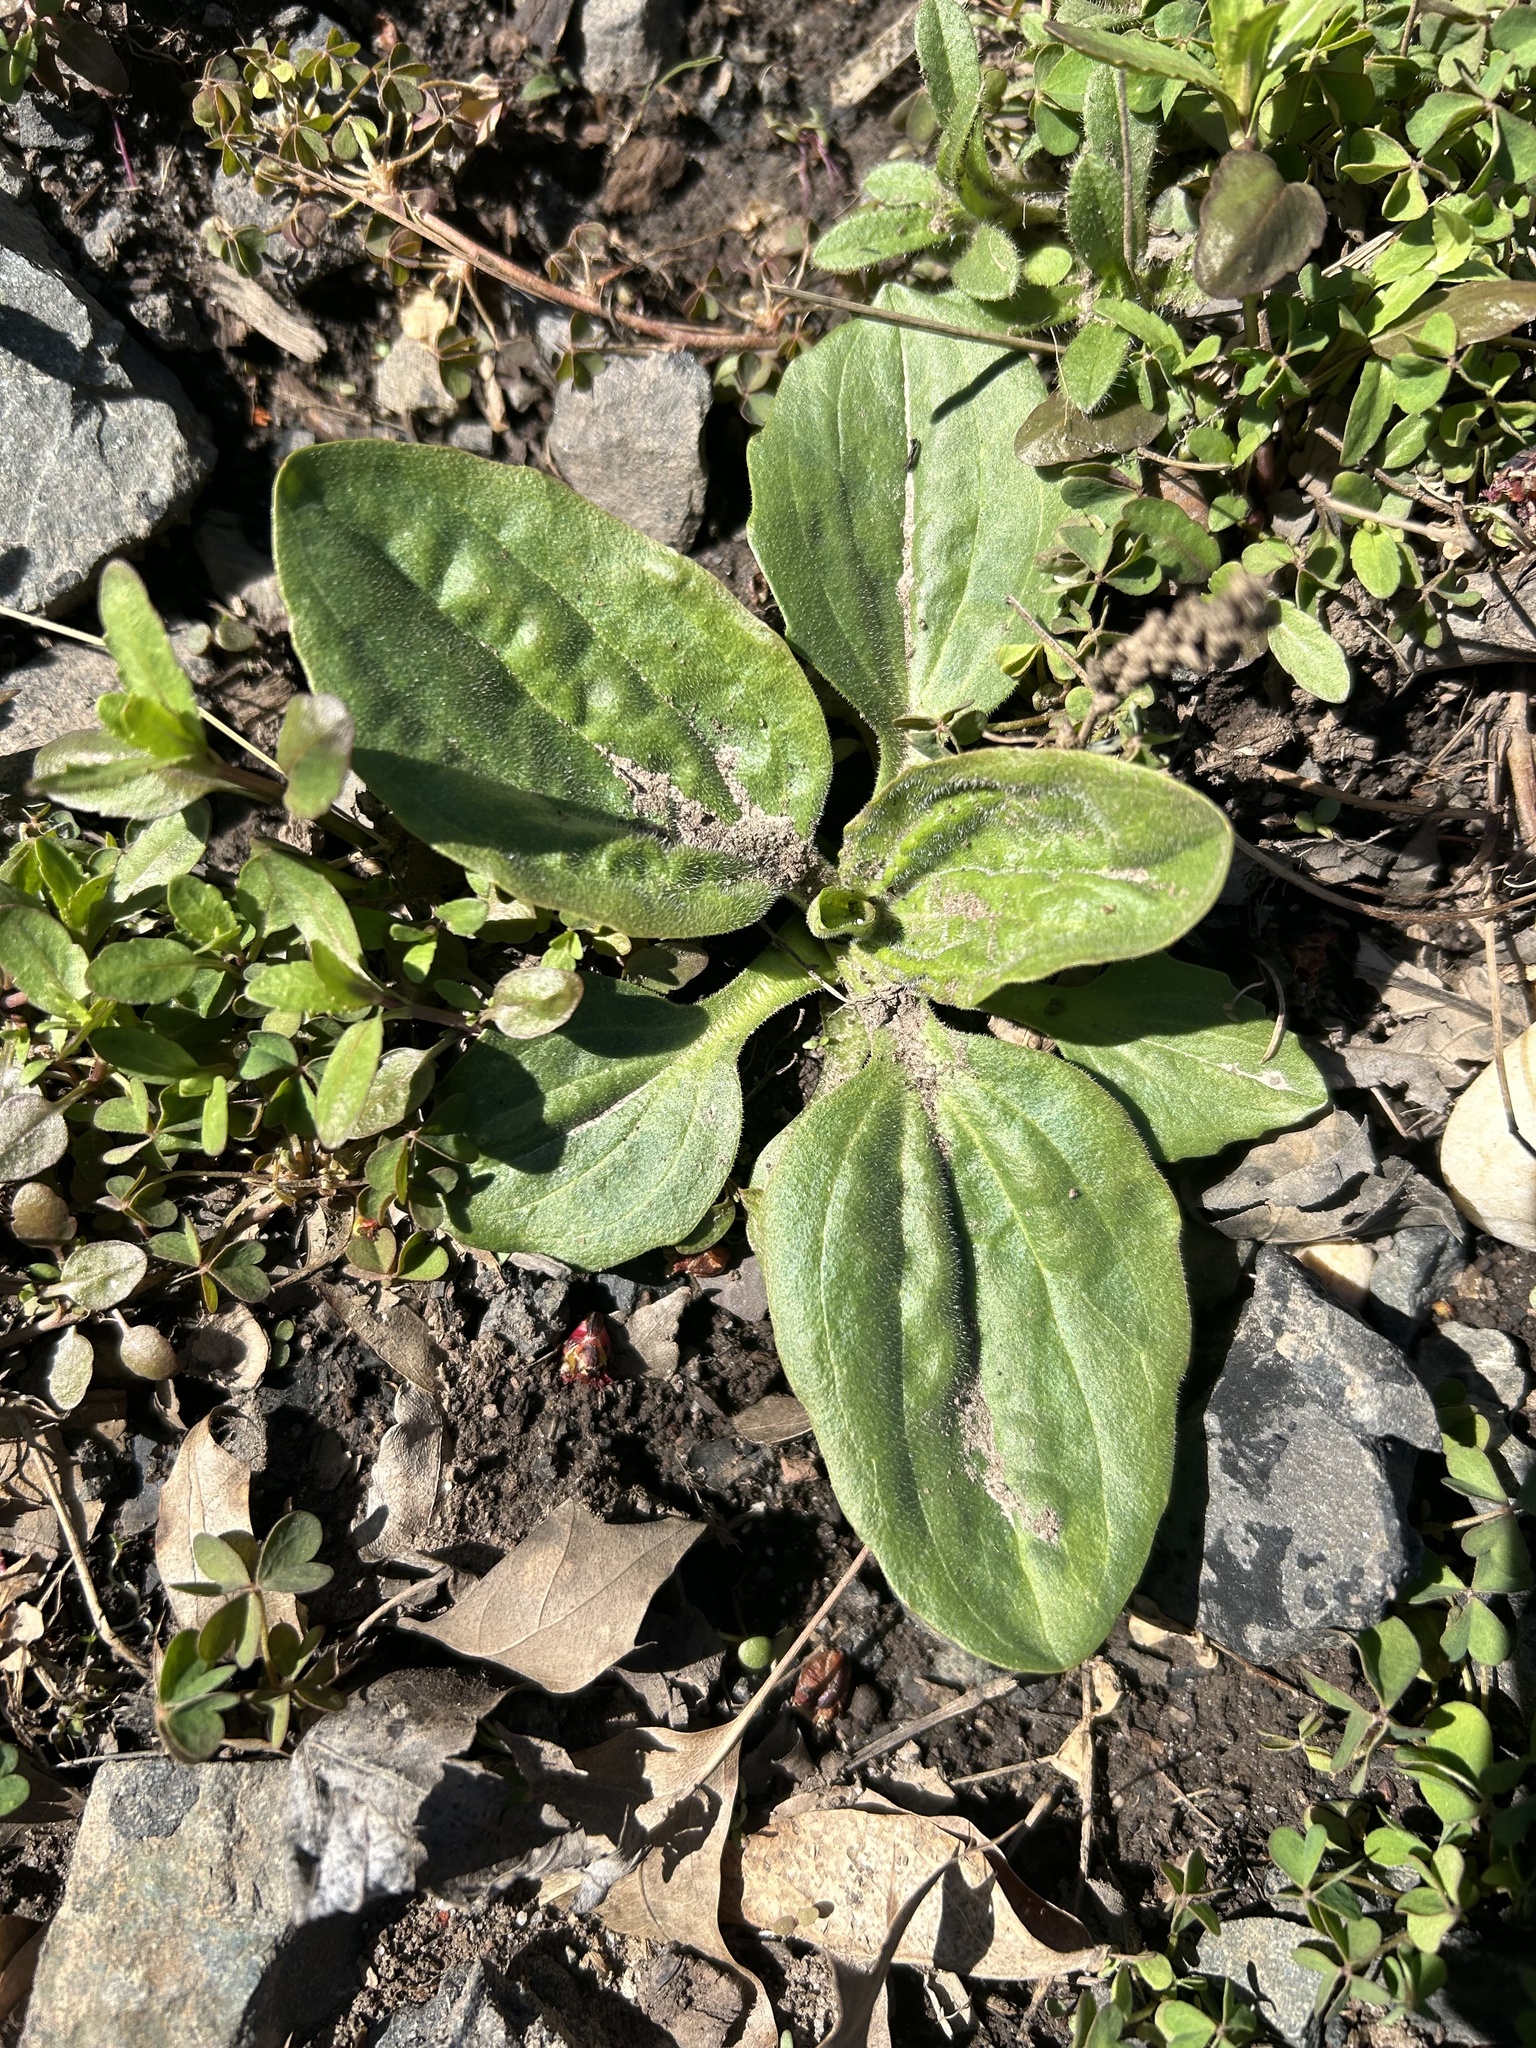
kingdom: Plantae
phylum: Tracheophyta
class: Magnoliopsida
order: Lamiales
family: Plantaginaceae
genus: Plantago
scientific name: Plantago major
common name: Common plantain
